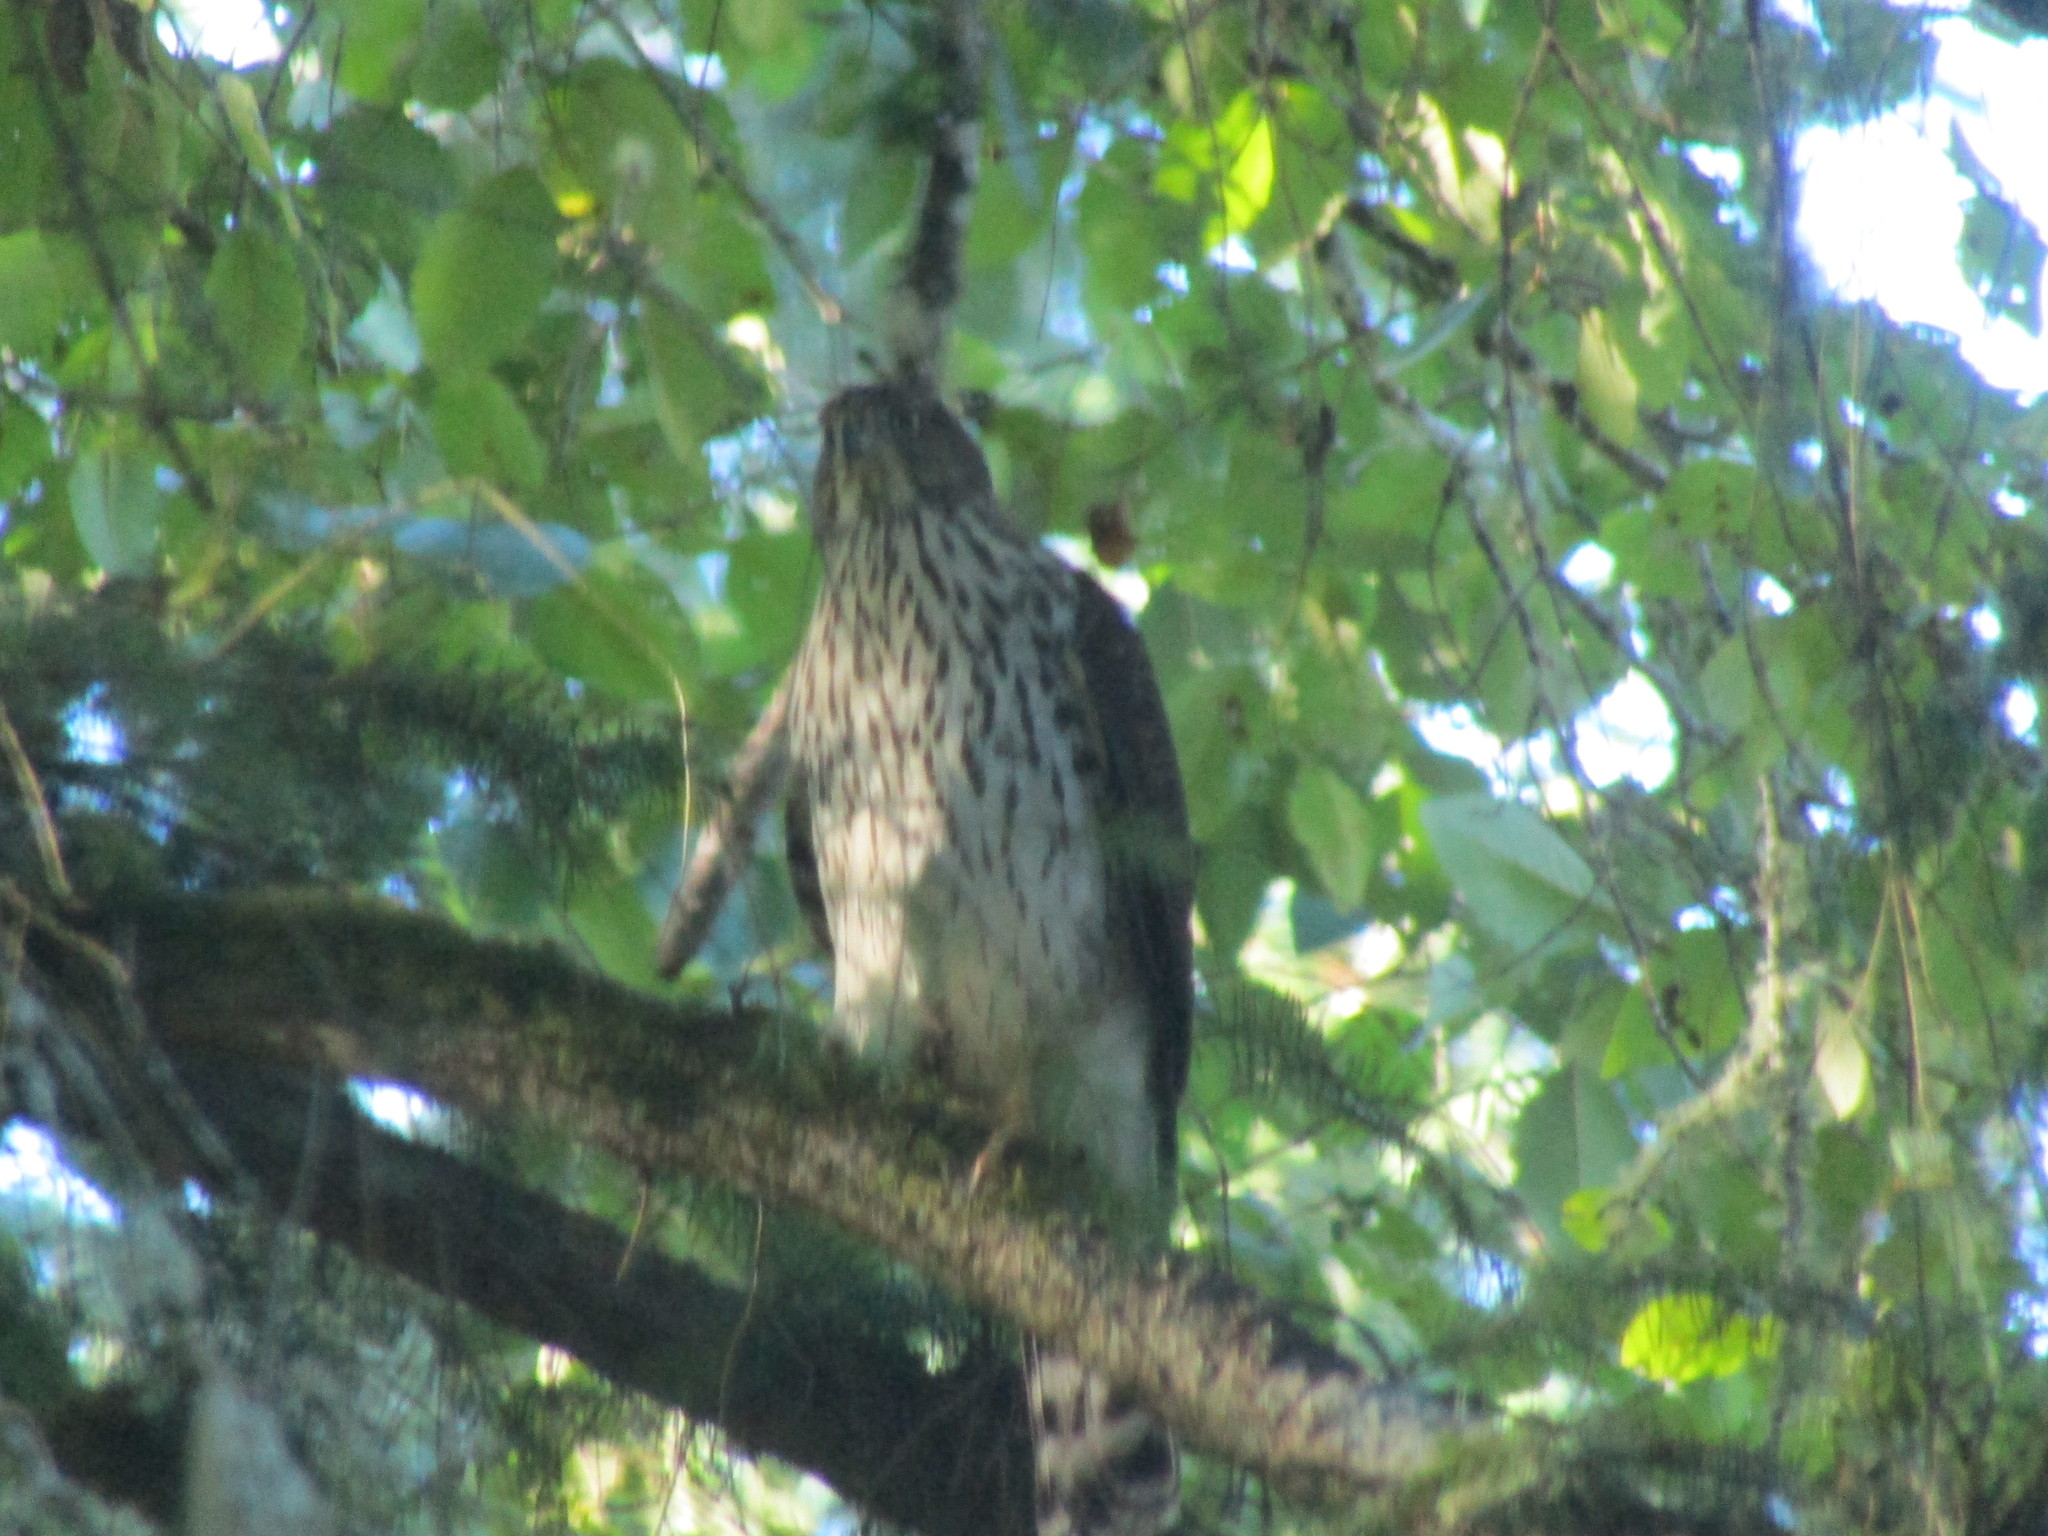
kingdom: Animalia
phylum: Chordata
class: Aves
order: Accipitriformes
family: Accipitridae
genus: Accipiter
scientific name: Accipiter cooperii
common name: Cooper's hawk
